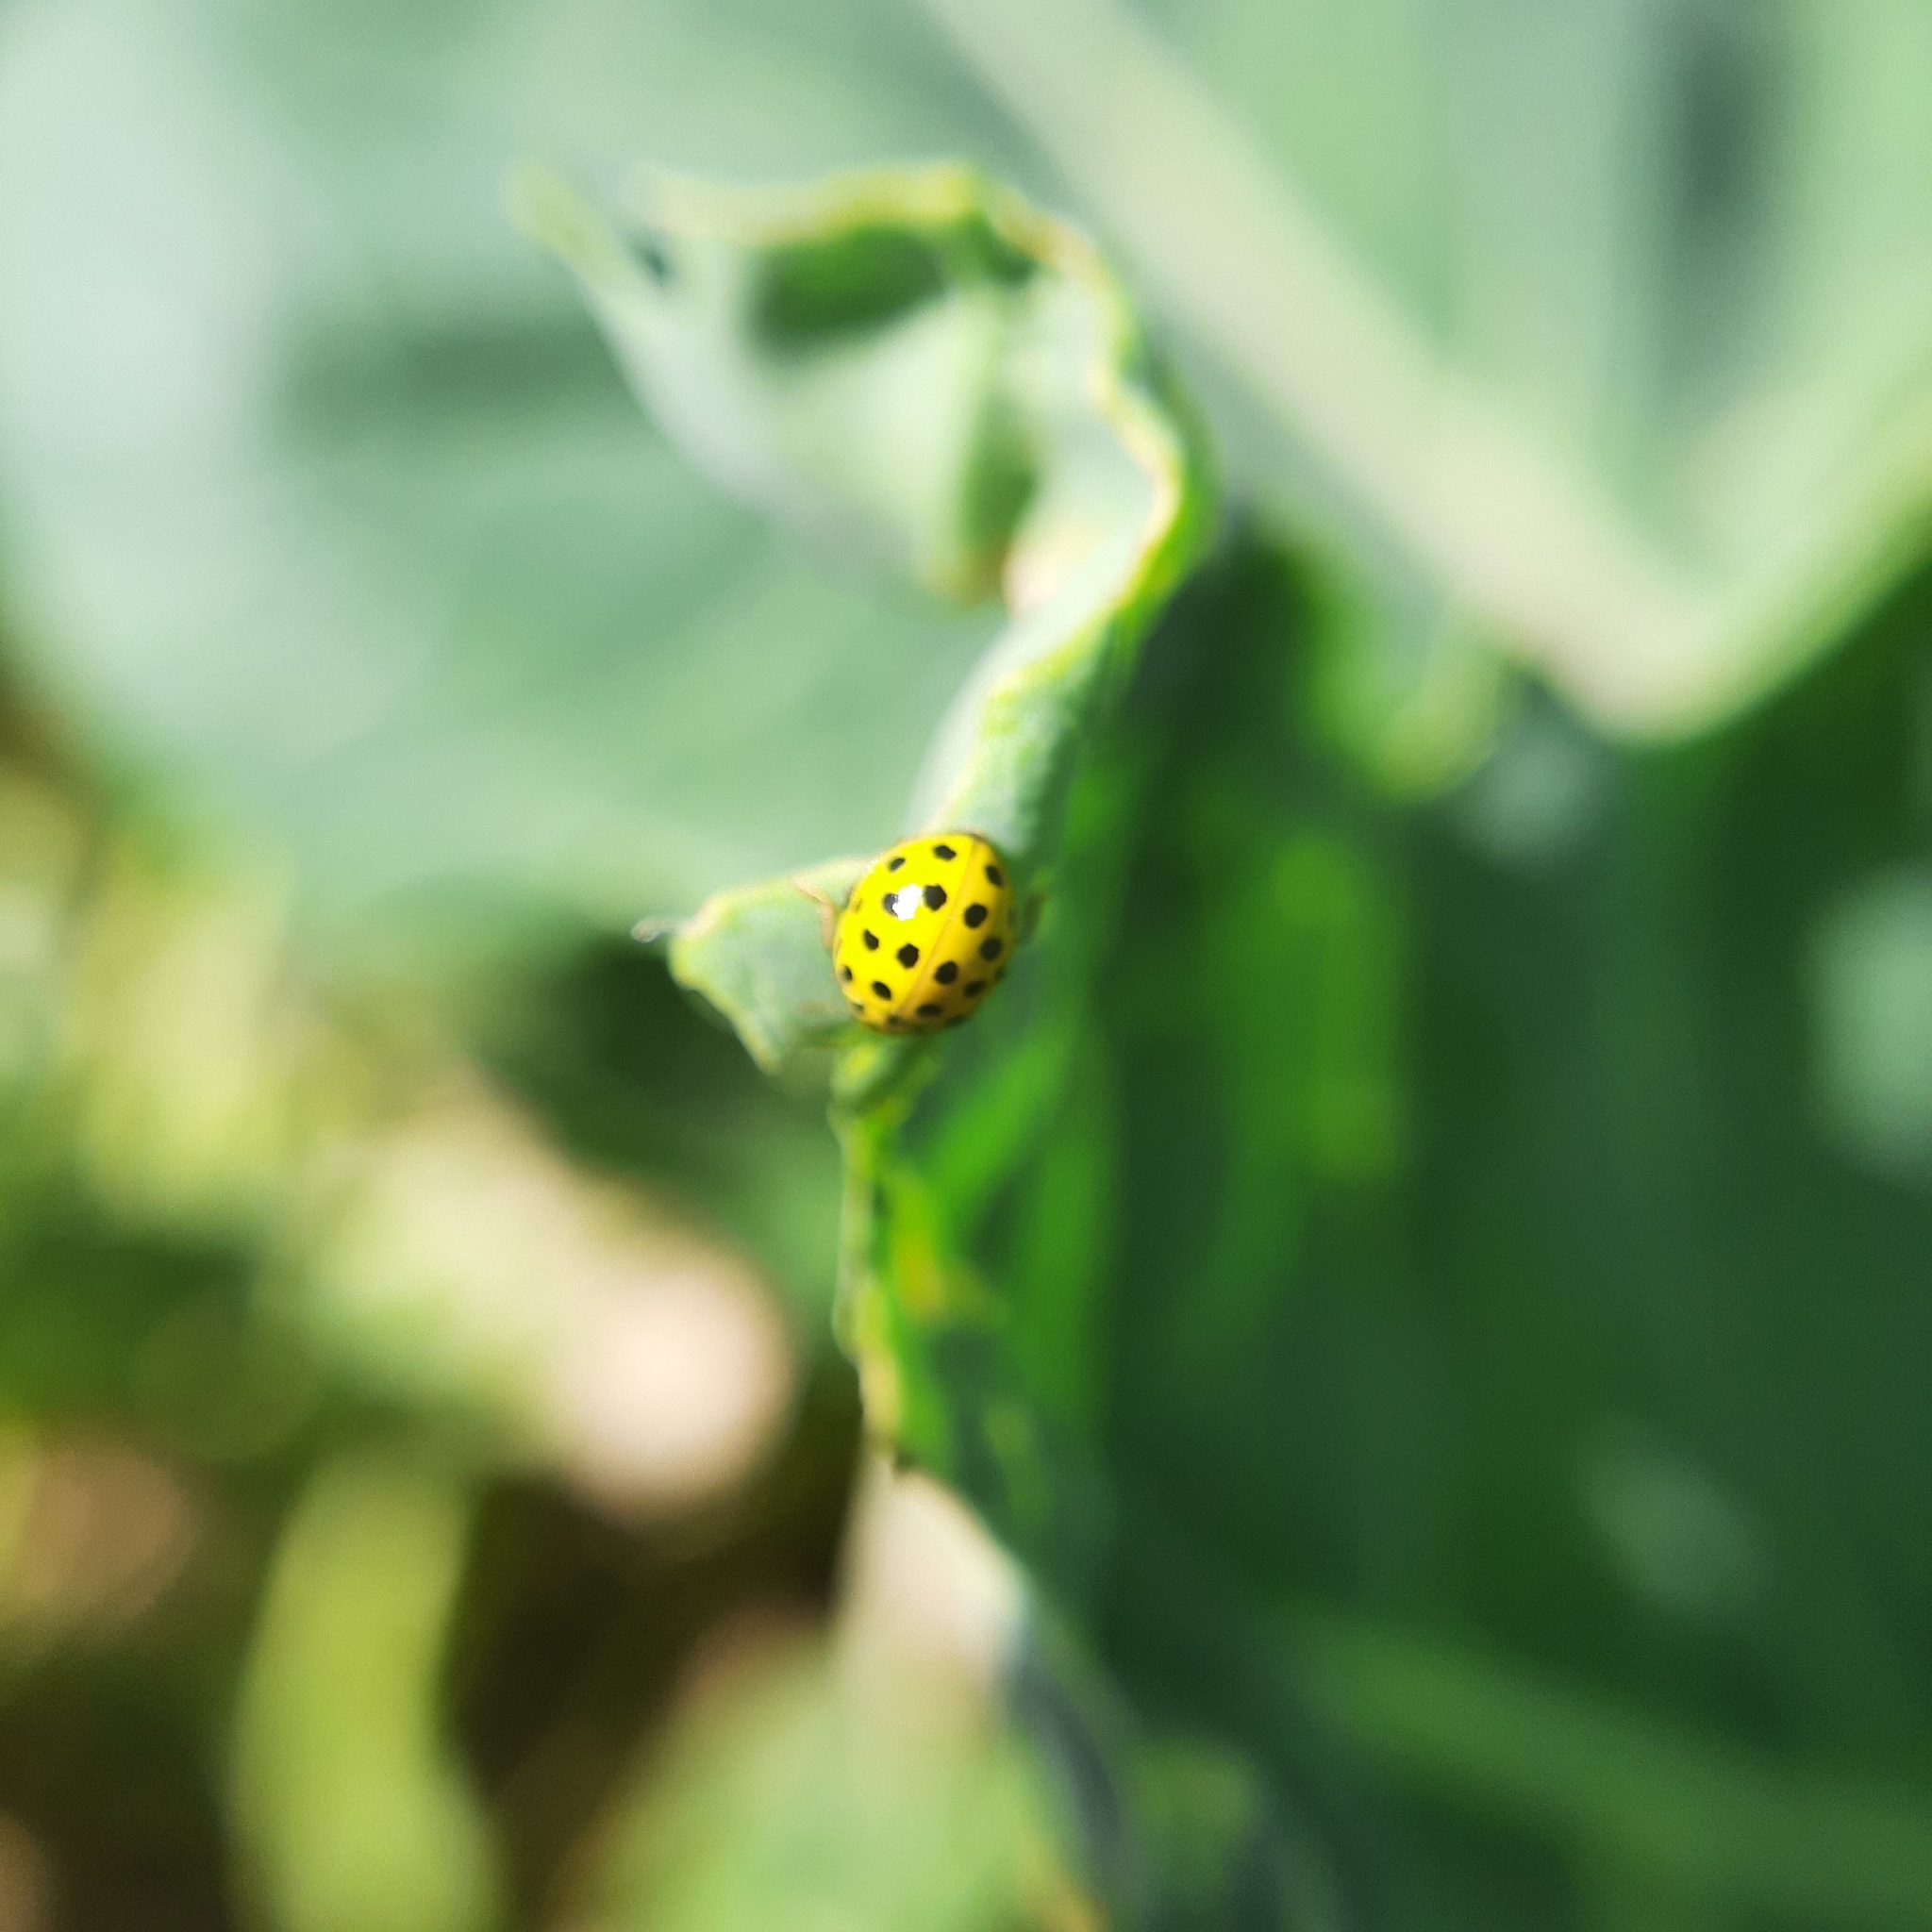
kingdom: Animalia
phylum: Arthropoda
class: Insecta
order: Coleoptera
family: Coccinellidae
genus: Psyllobora
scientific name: Psyllobora vigintiduopunctata
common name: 22-spot ladybird
